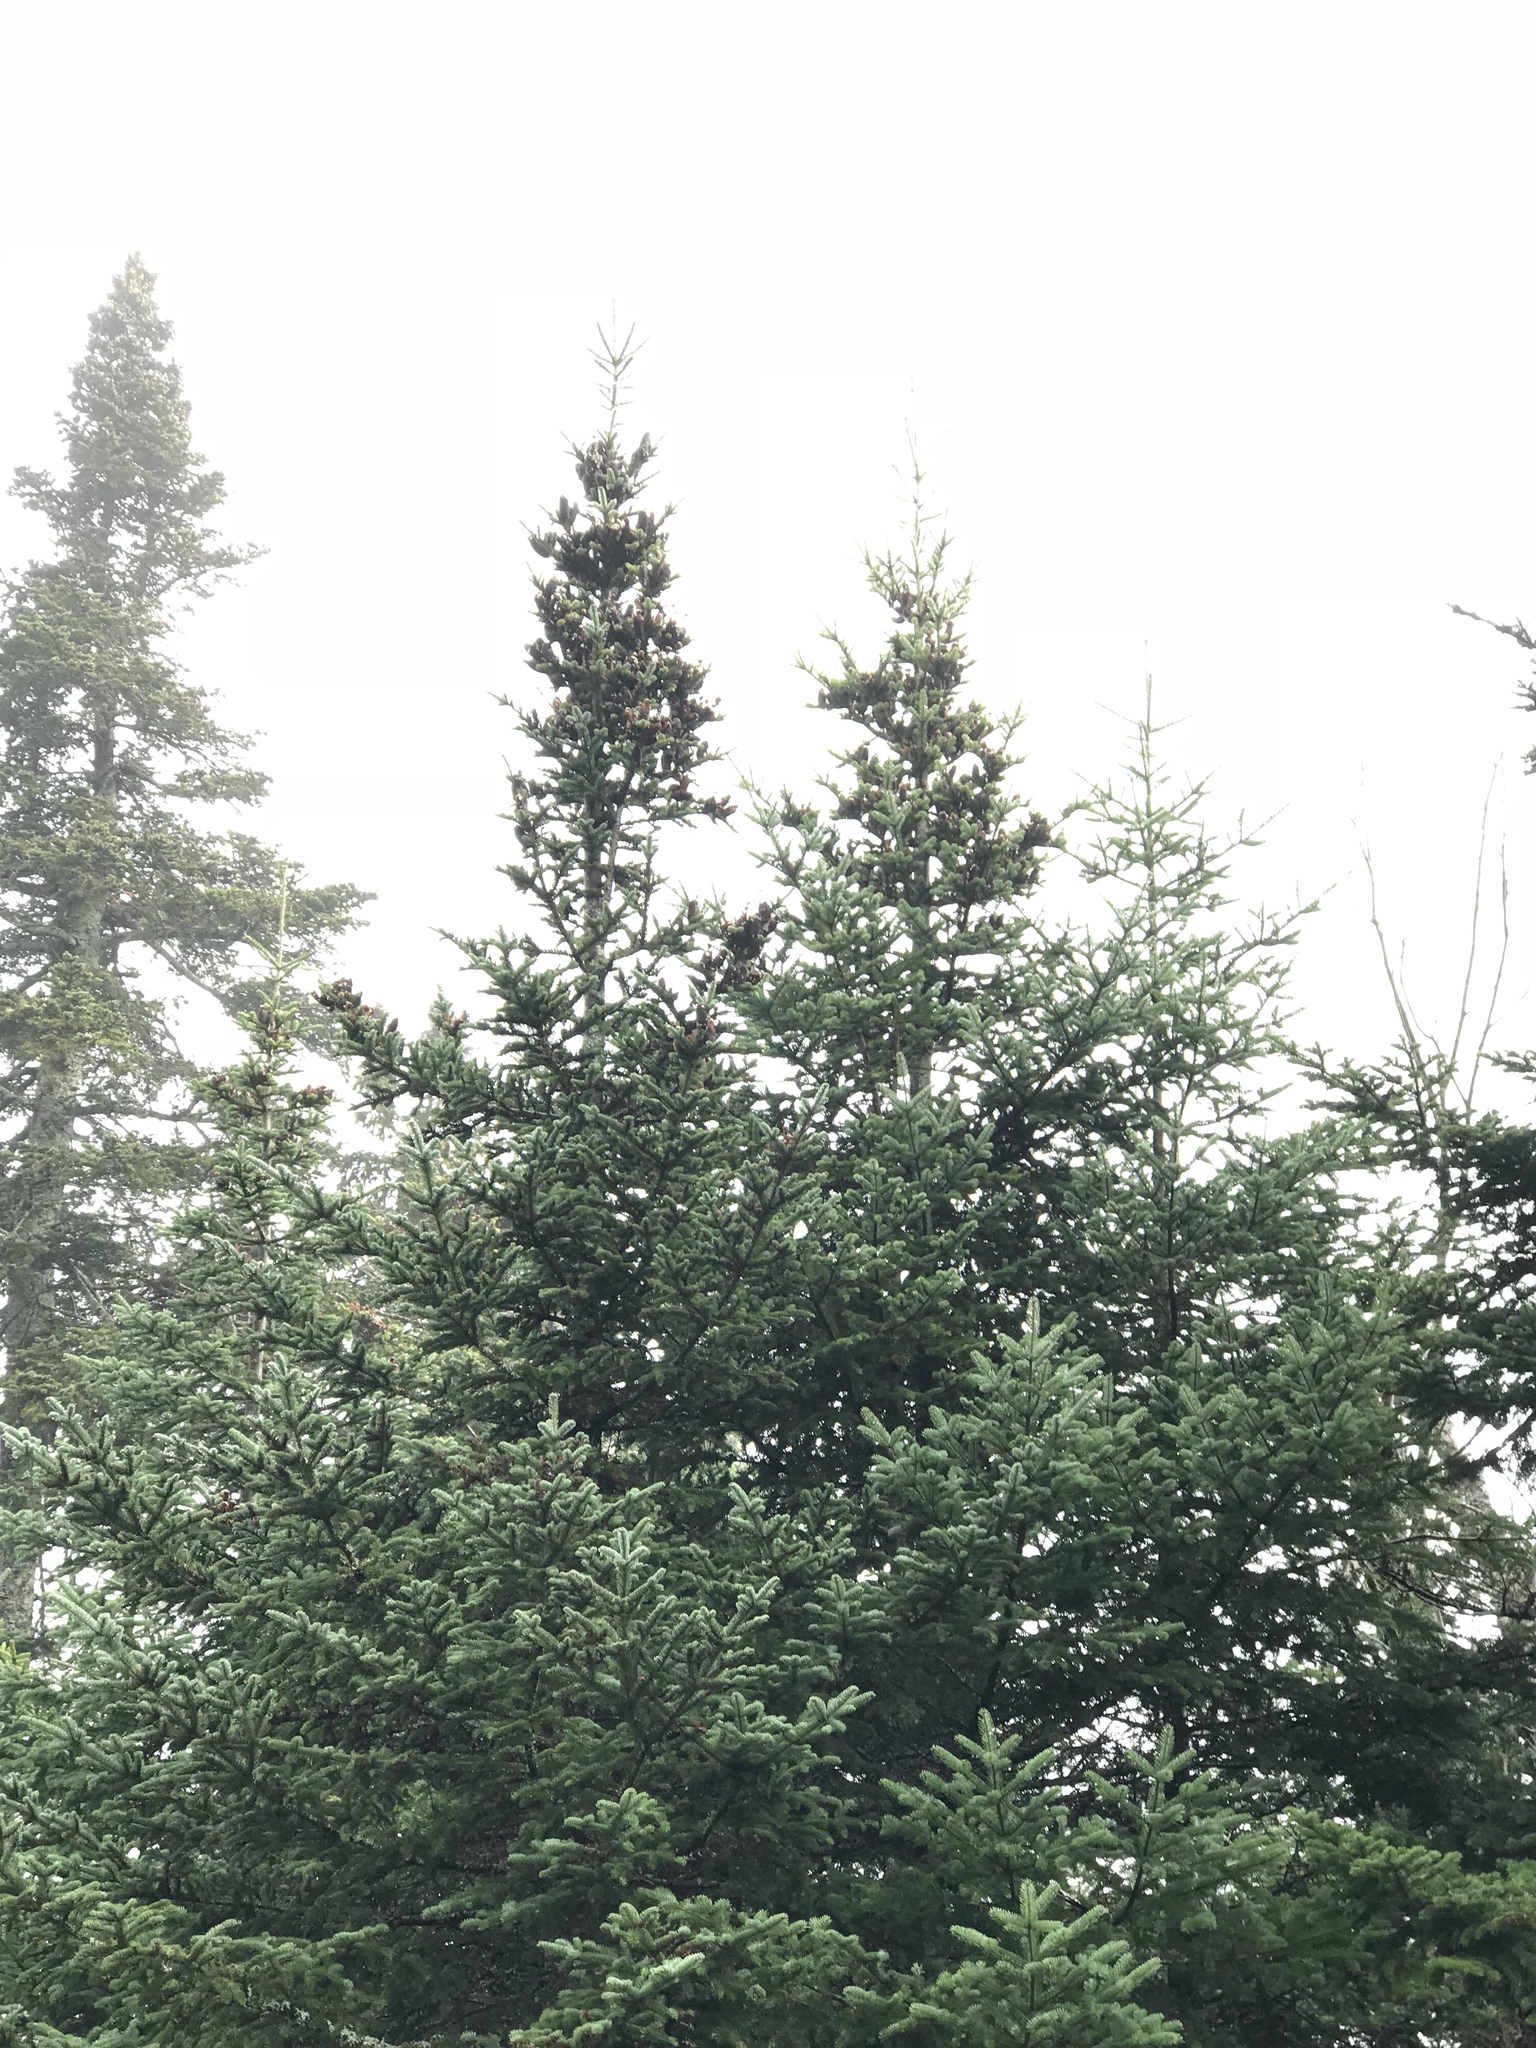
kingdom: Plantae
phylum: Tracheophyta
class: Pinopsida
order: Pinales
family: Pinaceae
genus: Abies
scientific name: Abies balsamea
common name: Balsam fir
